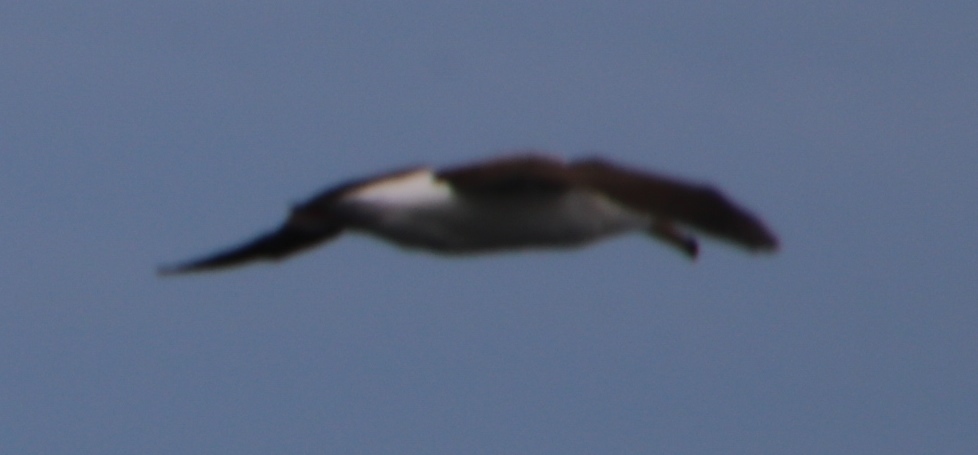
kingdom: Animalia
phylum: Chordata
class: Aves
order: Procellariiformes
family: Diomedeidae
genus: Thalassarche
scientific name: Thalassarche cauta
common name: Shy albatross
